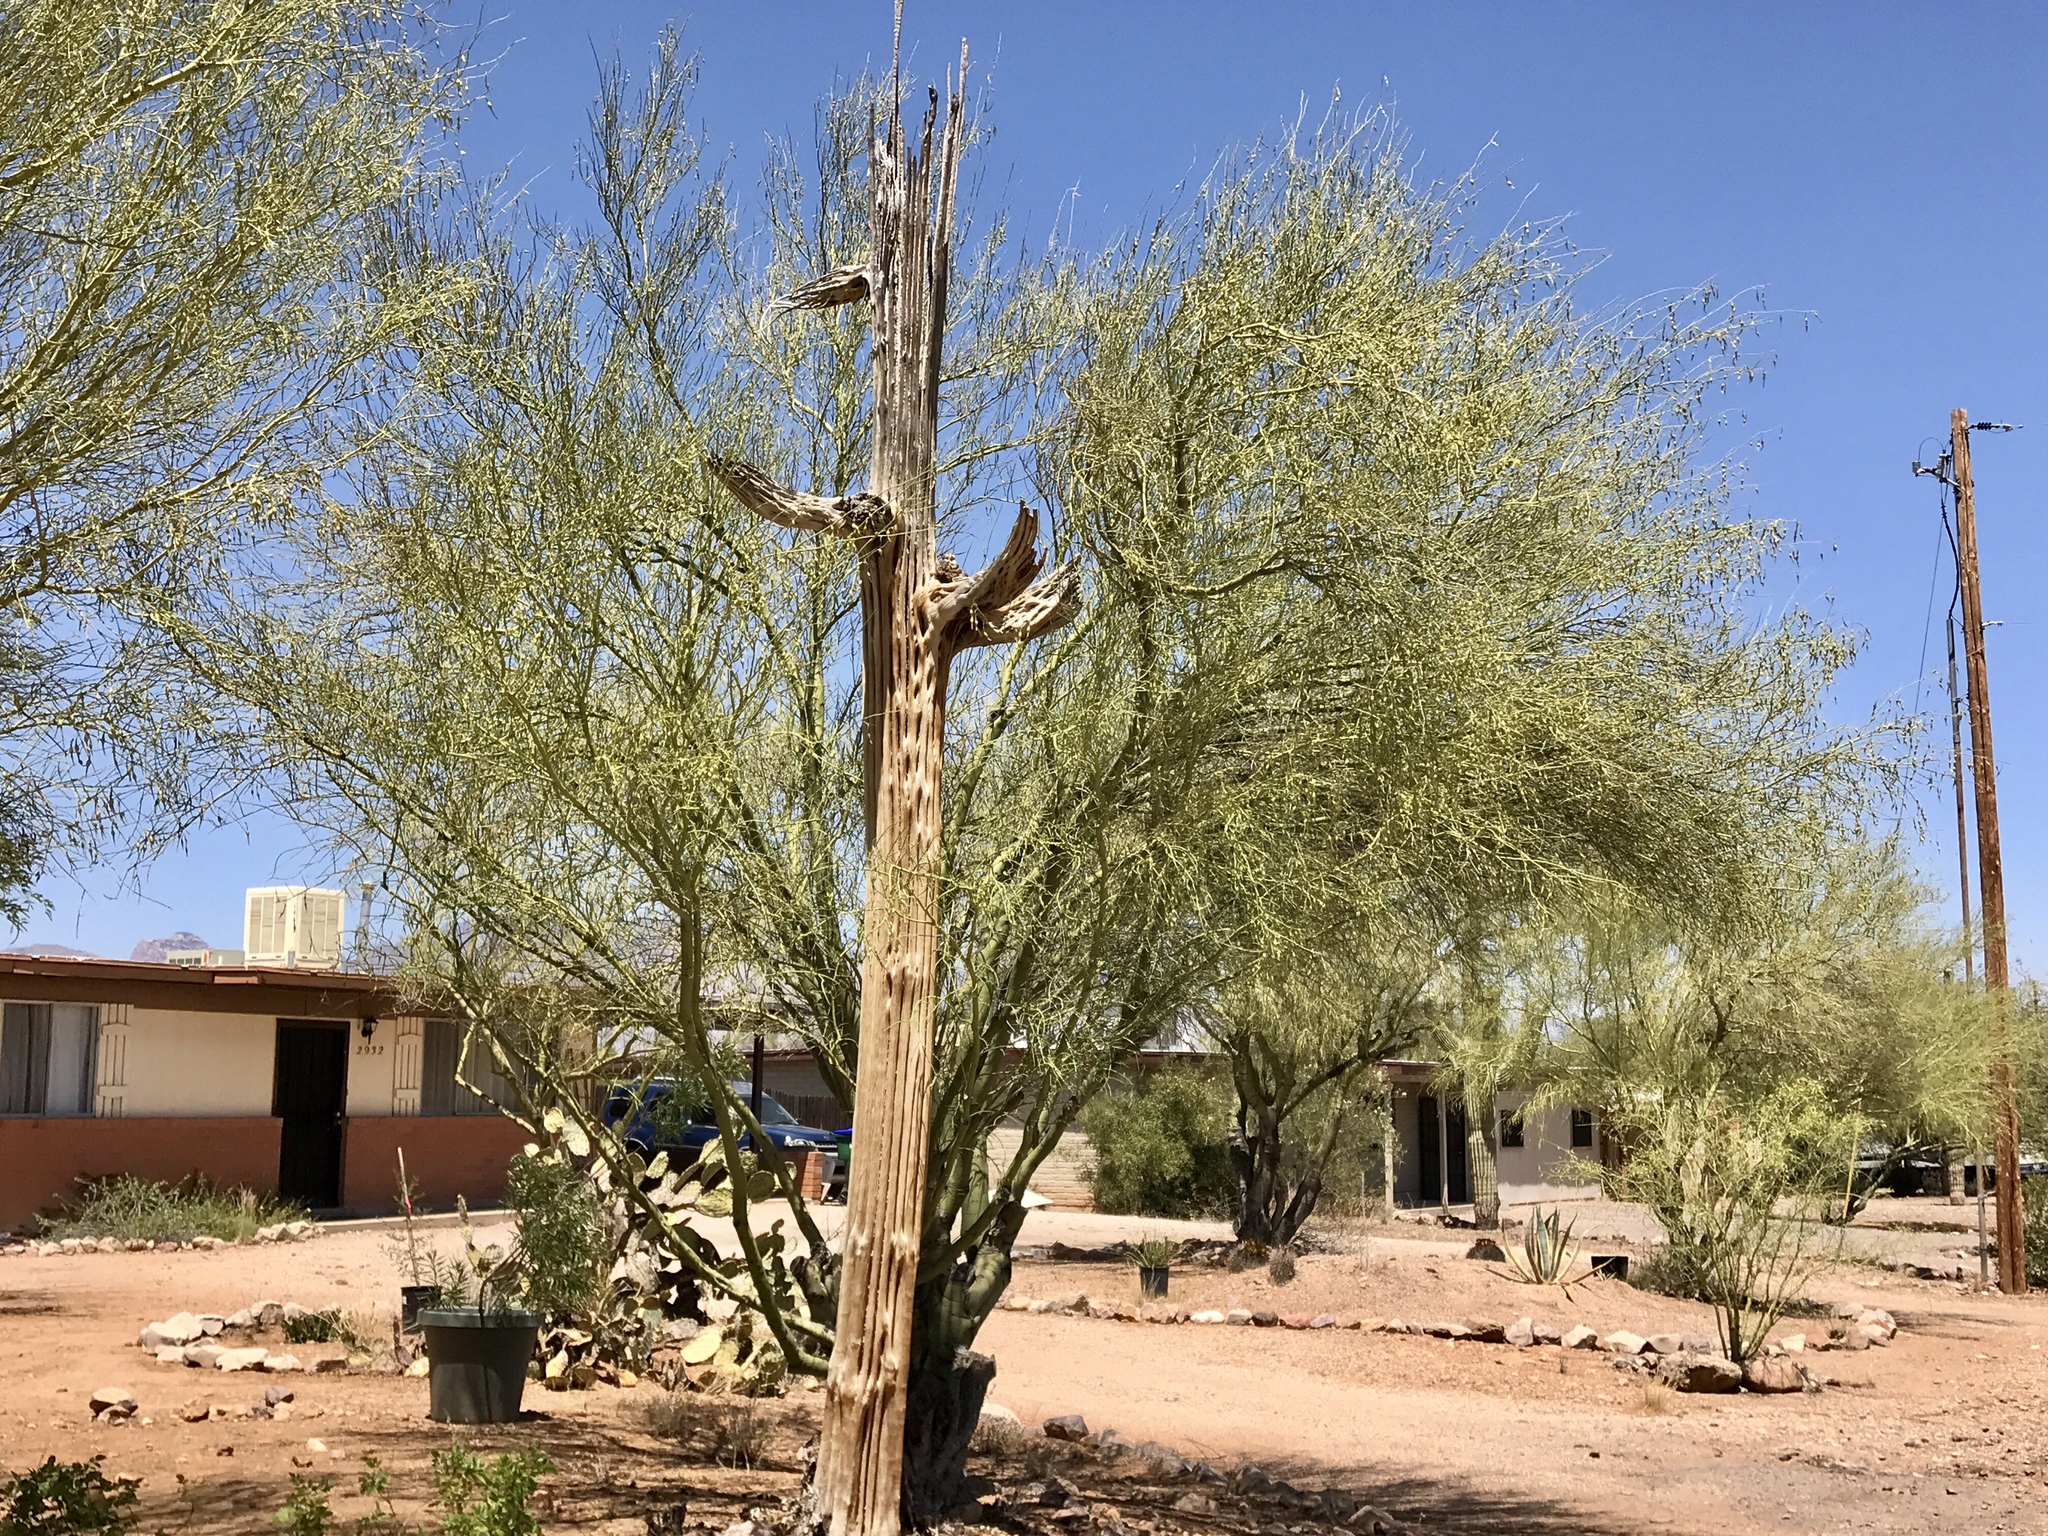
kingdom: Plantae
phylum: Tracheophyta
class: Magnoliopsida
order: Fabales
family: Fabaceae
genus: Parkinsonia
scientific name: Parkinsonia microphylla
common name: Yellow paloverde
